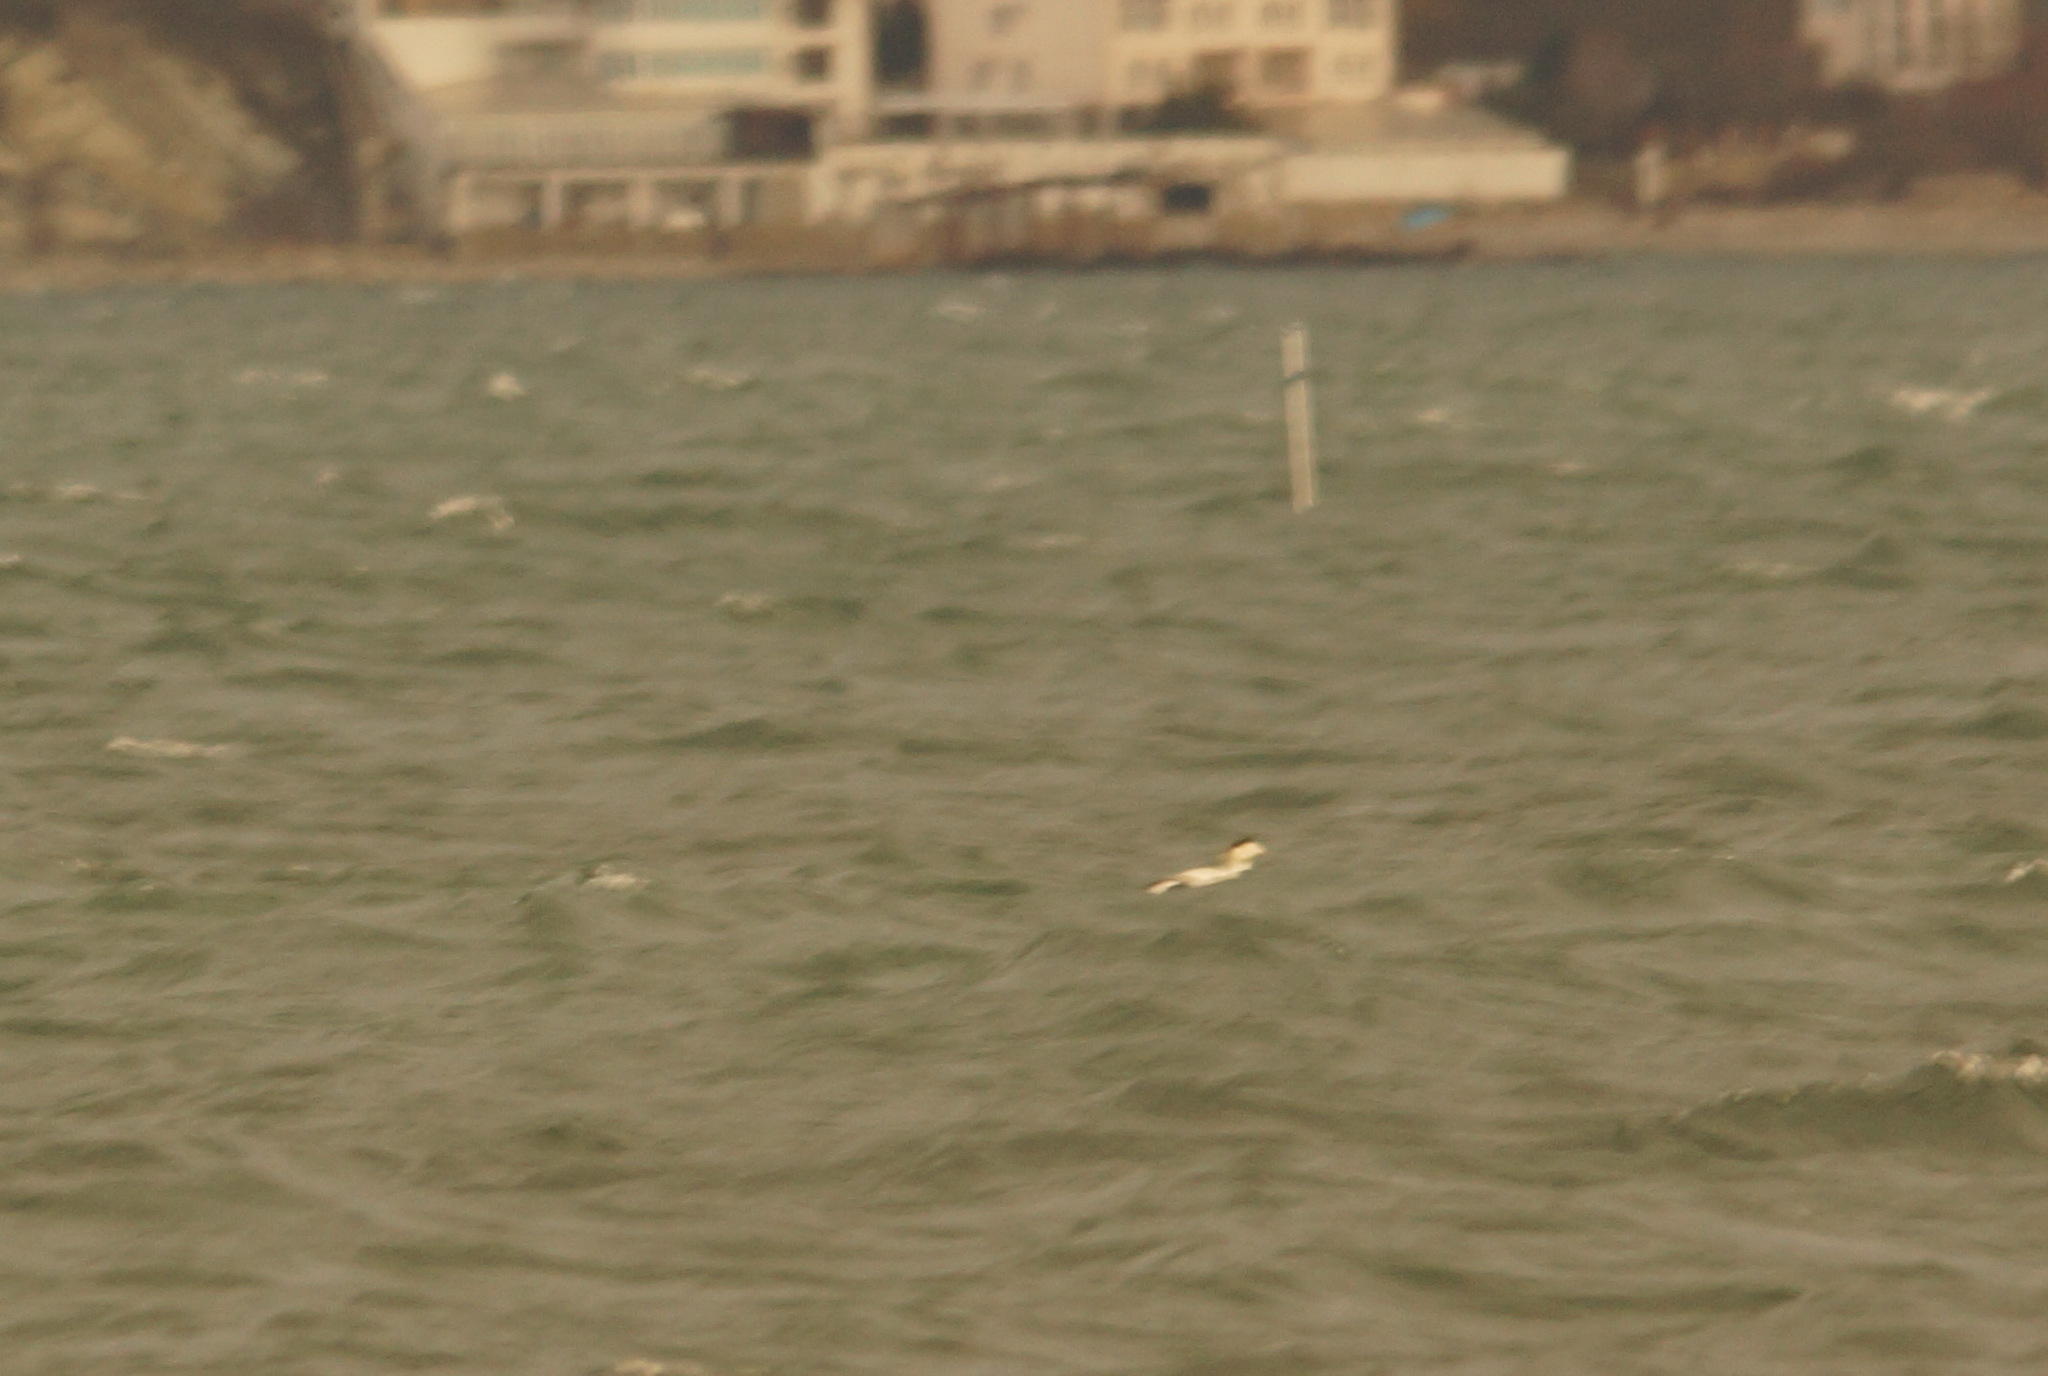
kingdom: Animalia
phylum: Chordata
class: Aves
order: Anseriformes
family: Anatidae
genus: Somateria
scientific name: Somateria mollissima
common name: Common eider
